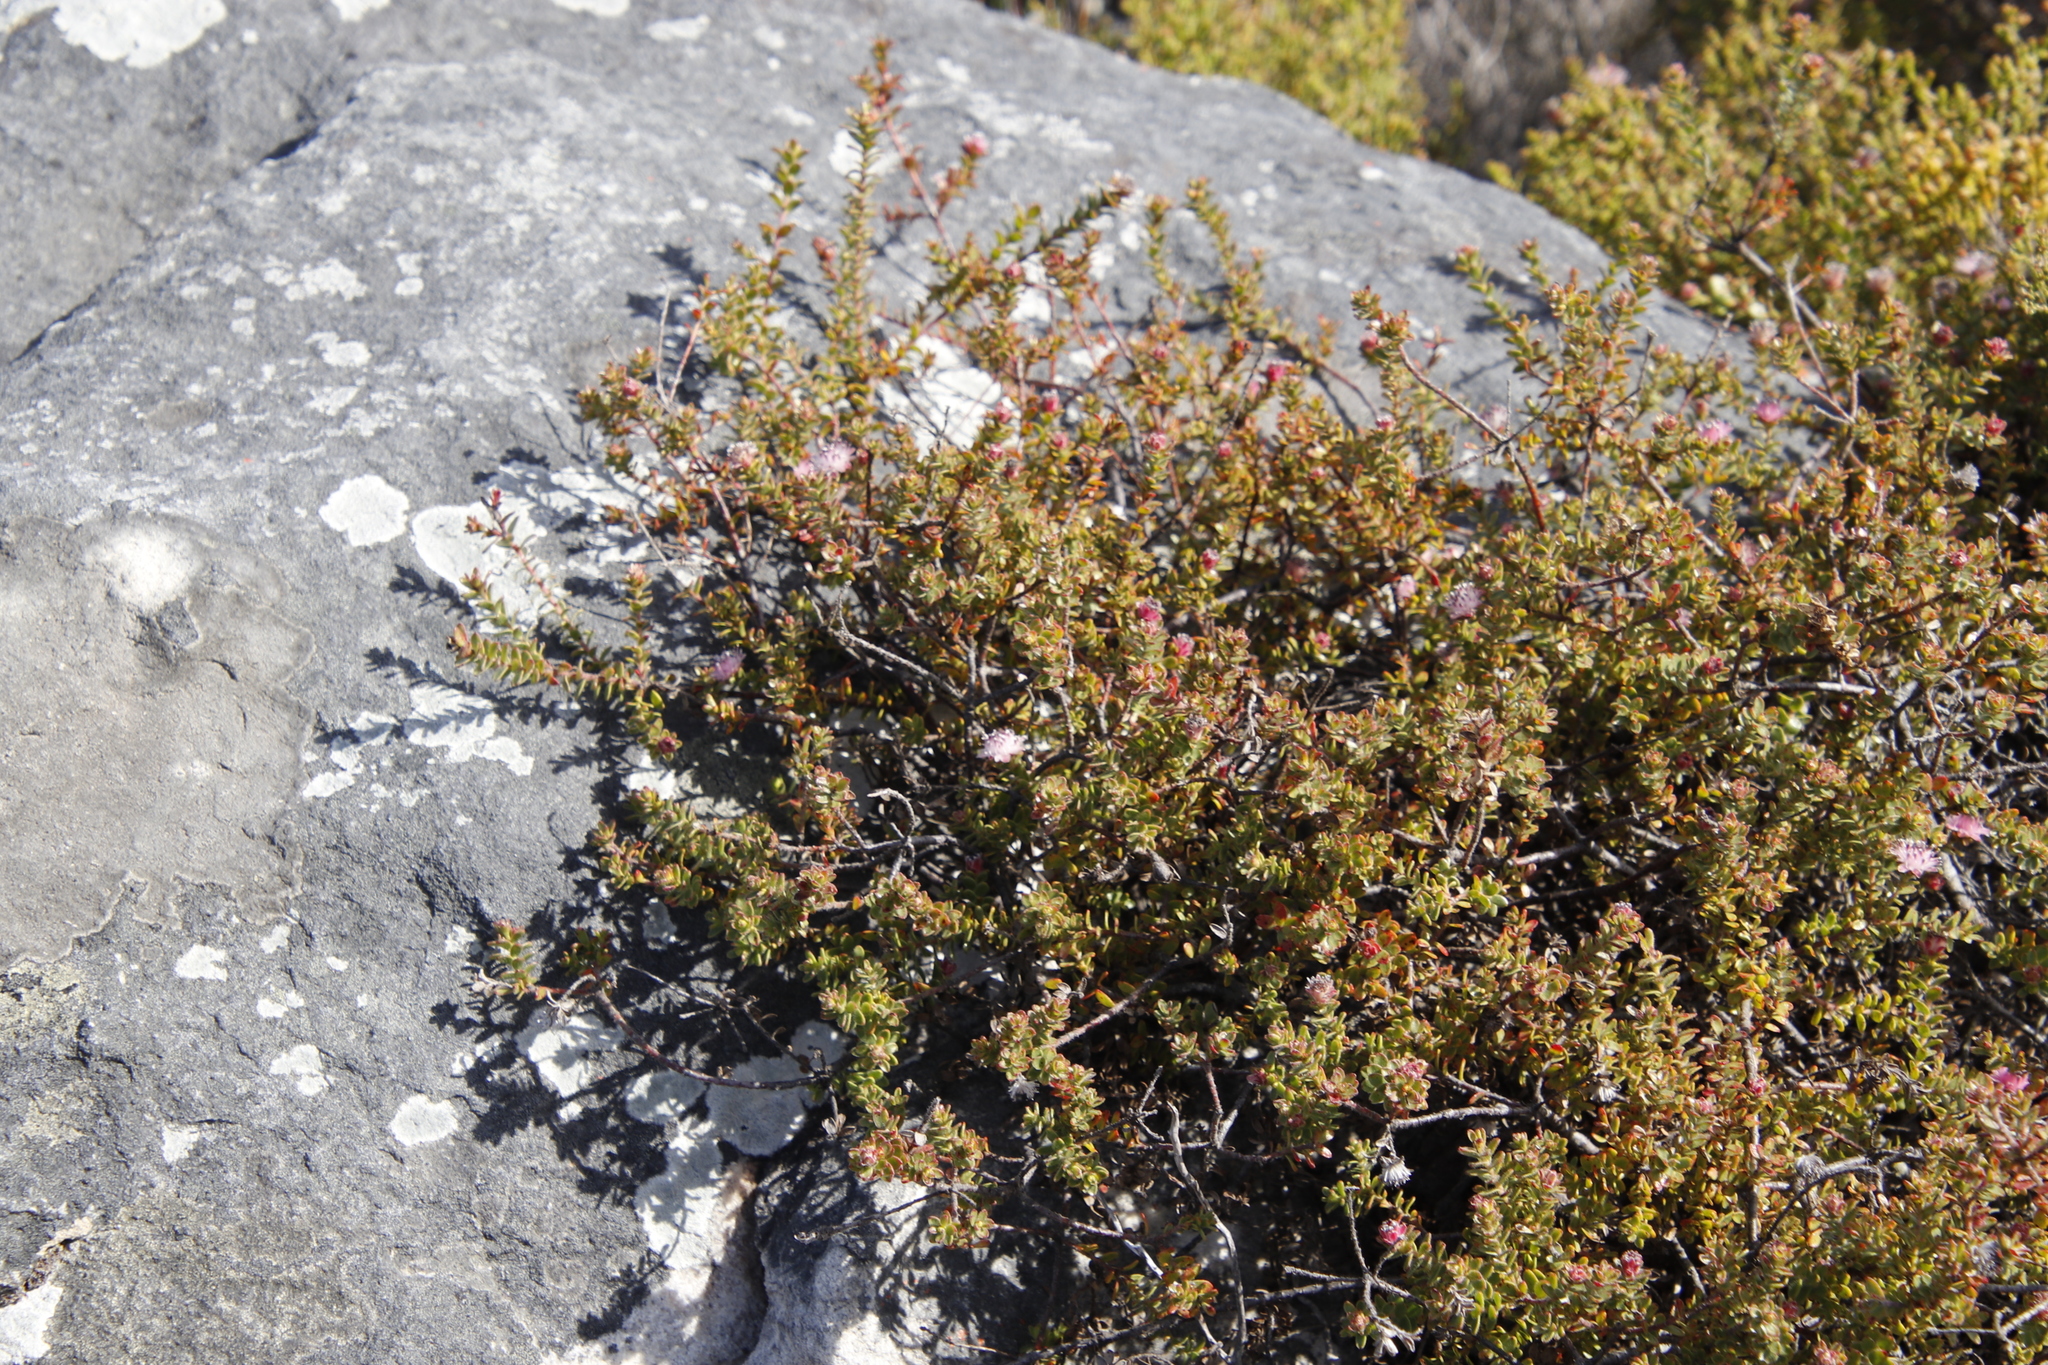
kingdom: Plantae
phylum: Tracheophyta
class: Magnoliopsida
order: Proteales
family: Proteaceae
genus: Diastella
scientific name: Diastella divaricata
